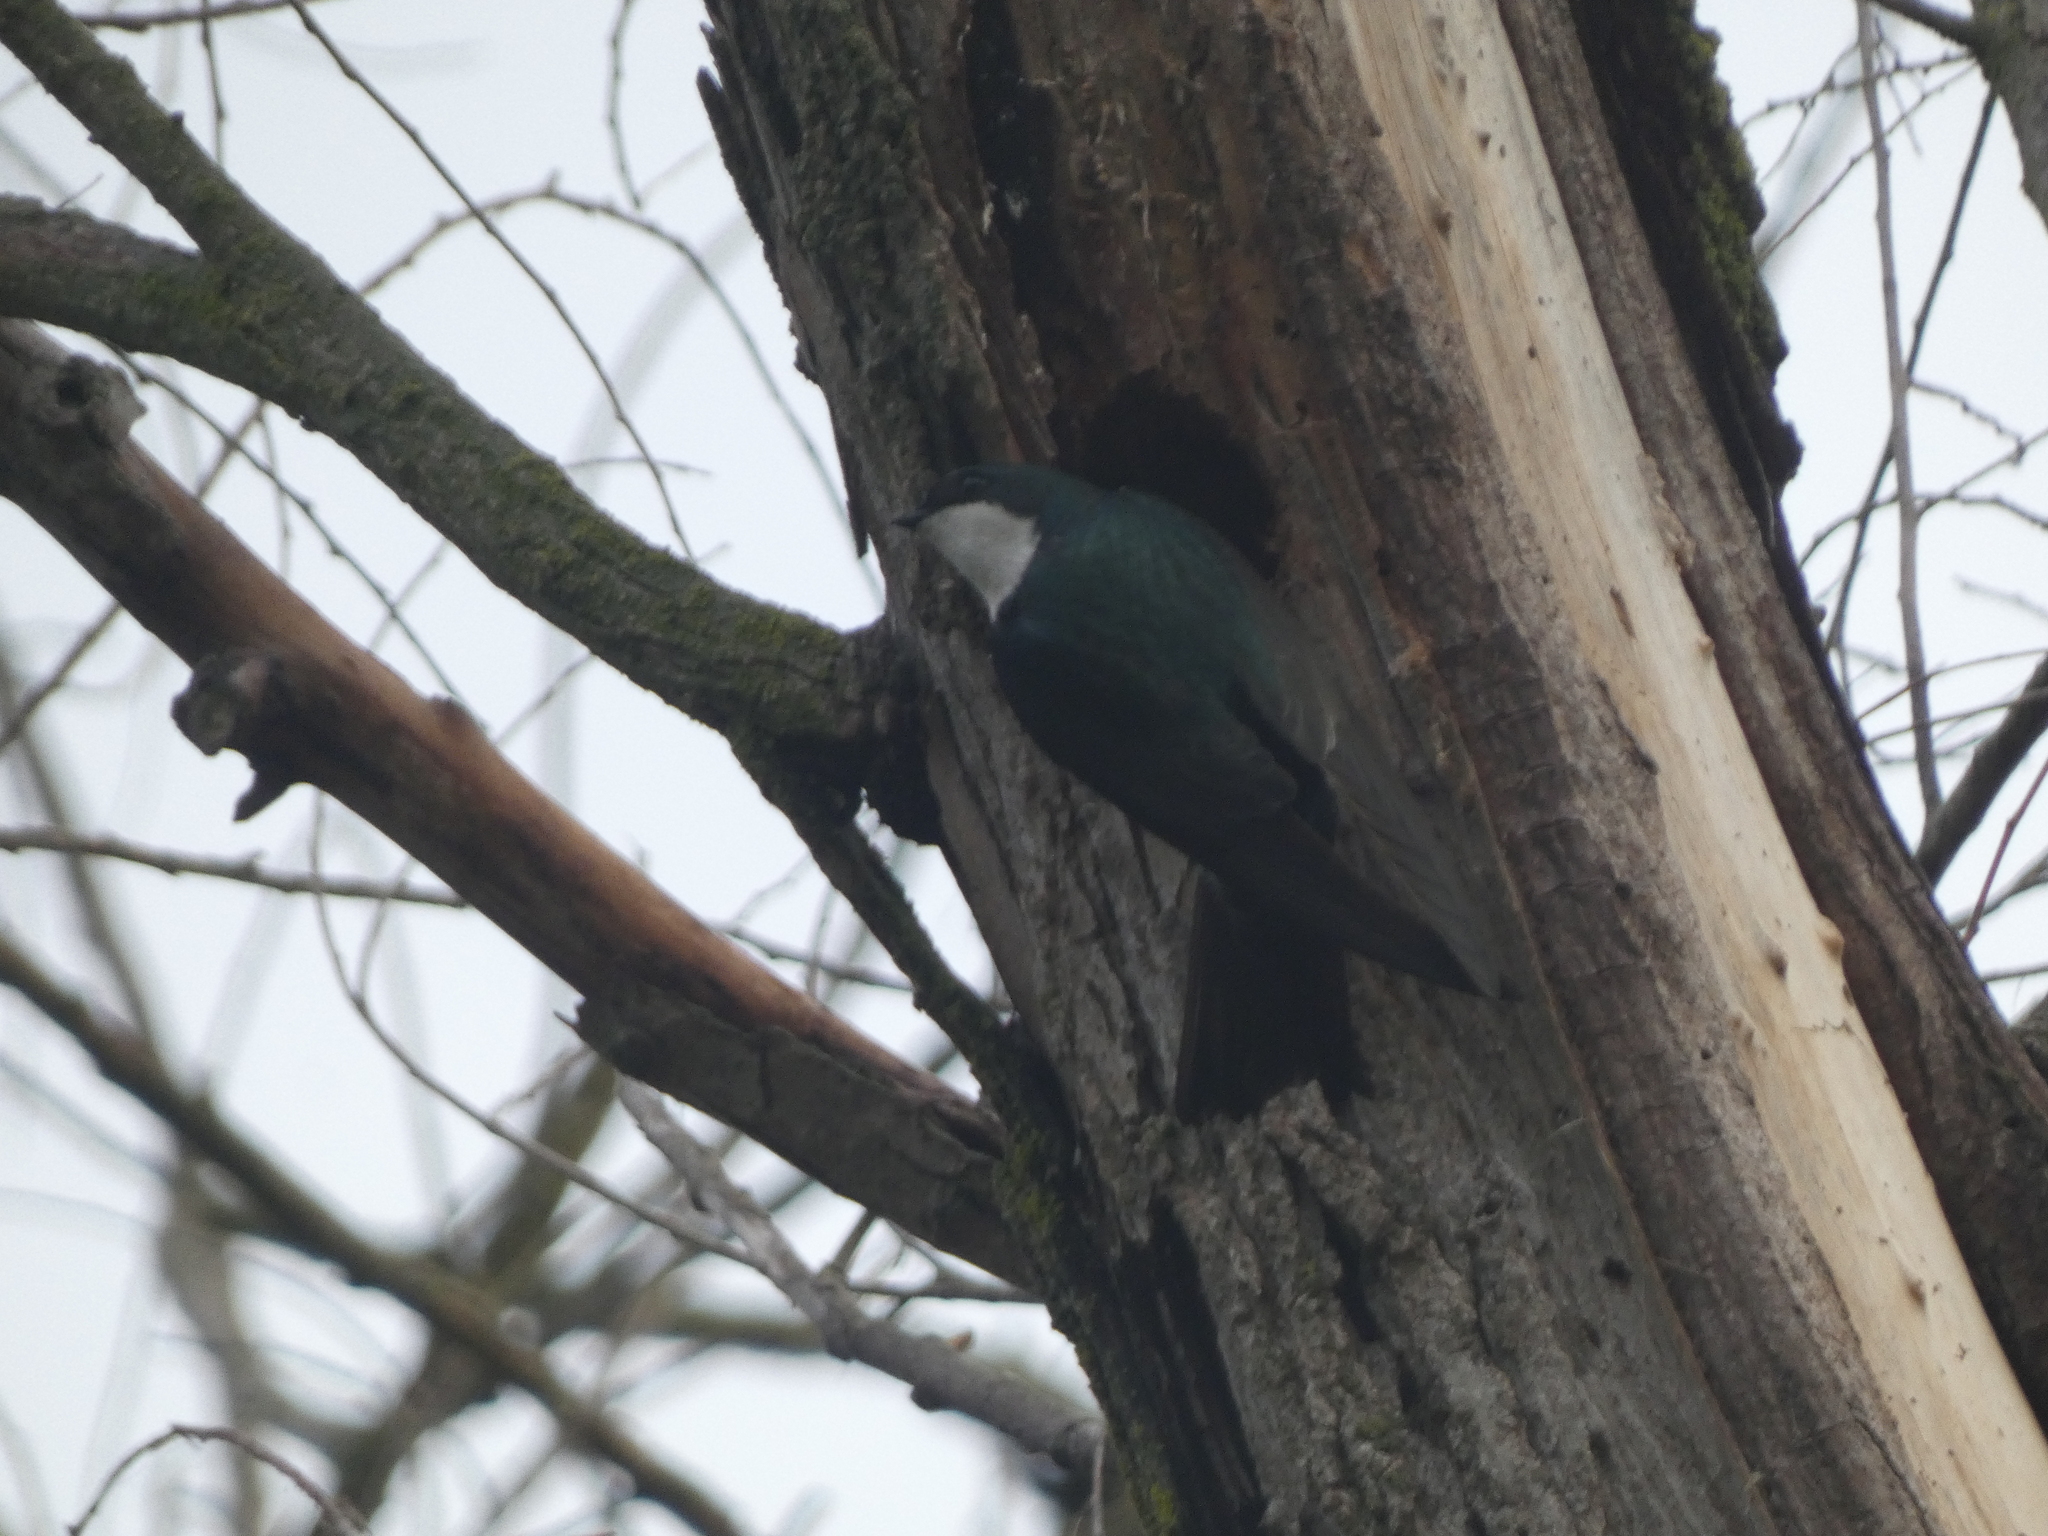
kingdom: Animalia
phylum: Chordata
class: Aves
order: Passeriformes
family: Hirundinidae
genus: Tachycineta
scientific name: Tachycineta bicolor
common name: Tree swallow
